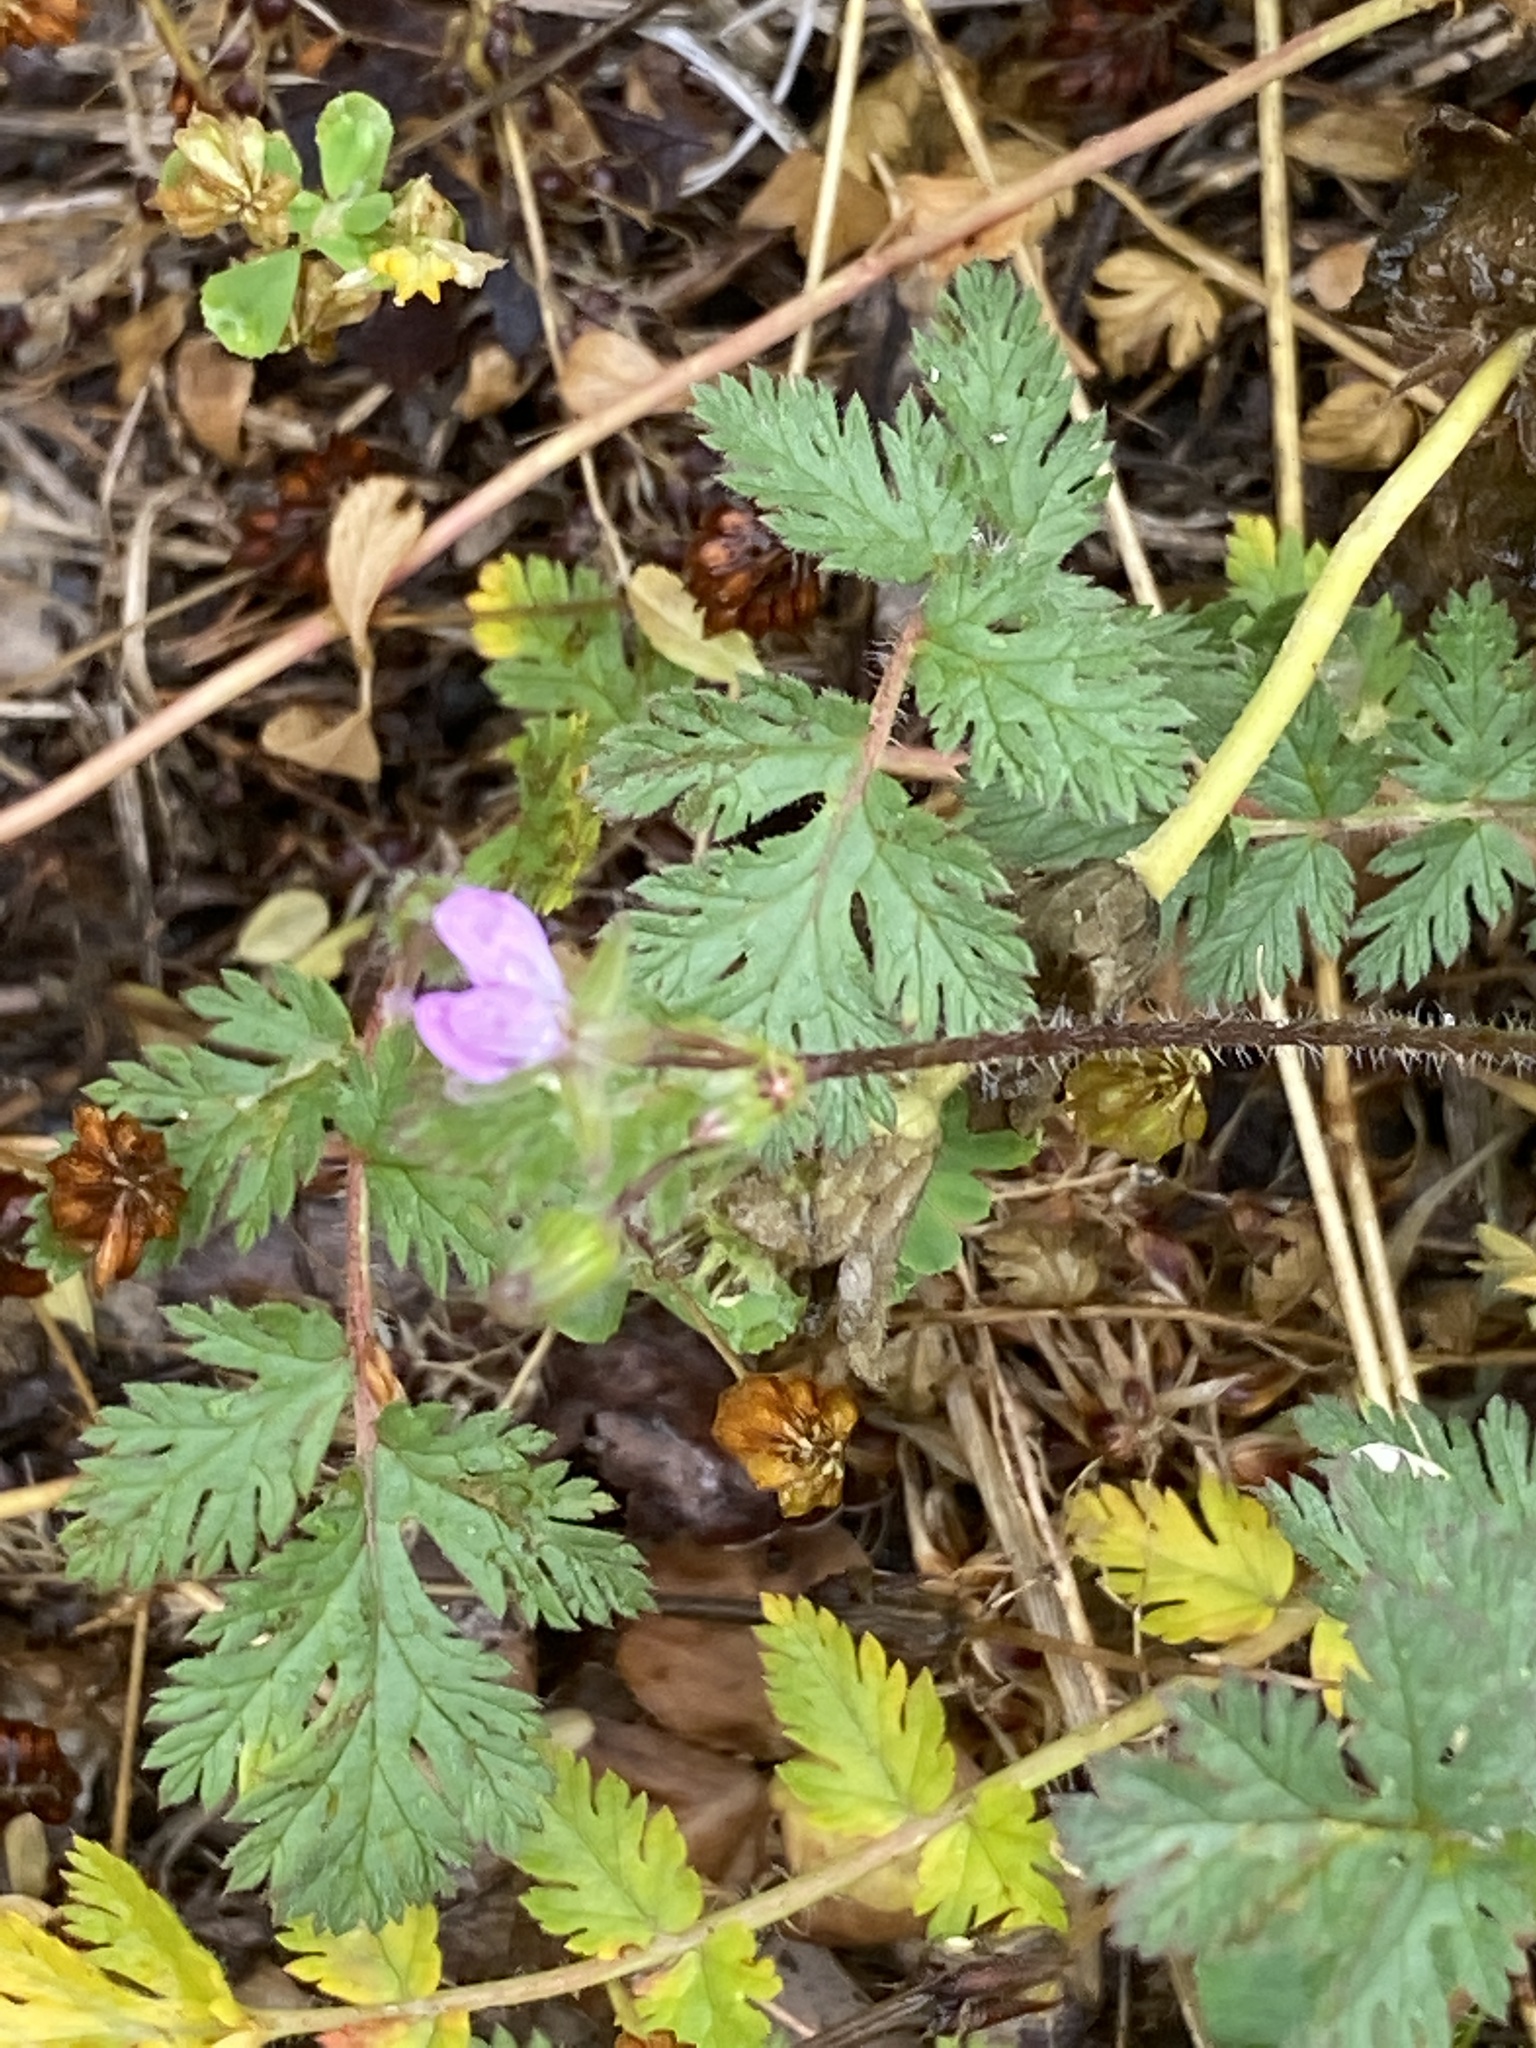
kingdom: Plantae
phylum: Tracheophyta
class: Magnoliopsida
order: Geraniales
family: Geraniaceae
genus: Erodium
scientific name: Erodium cicutarium
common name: Common stork's-bill
